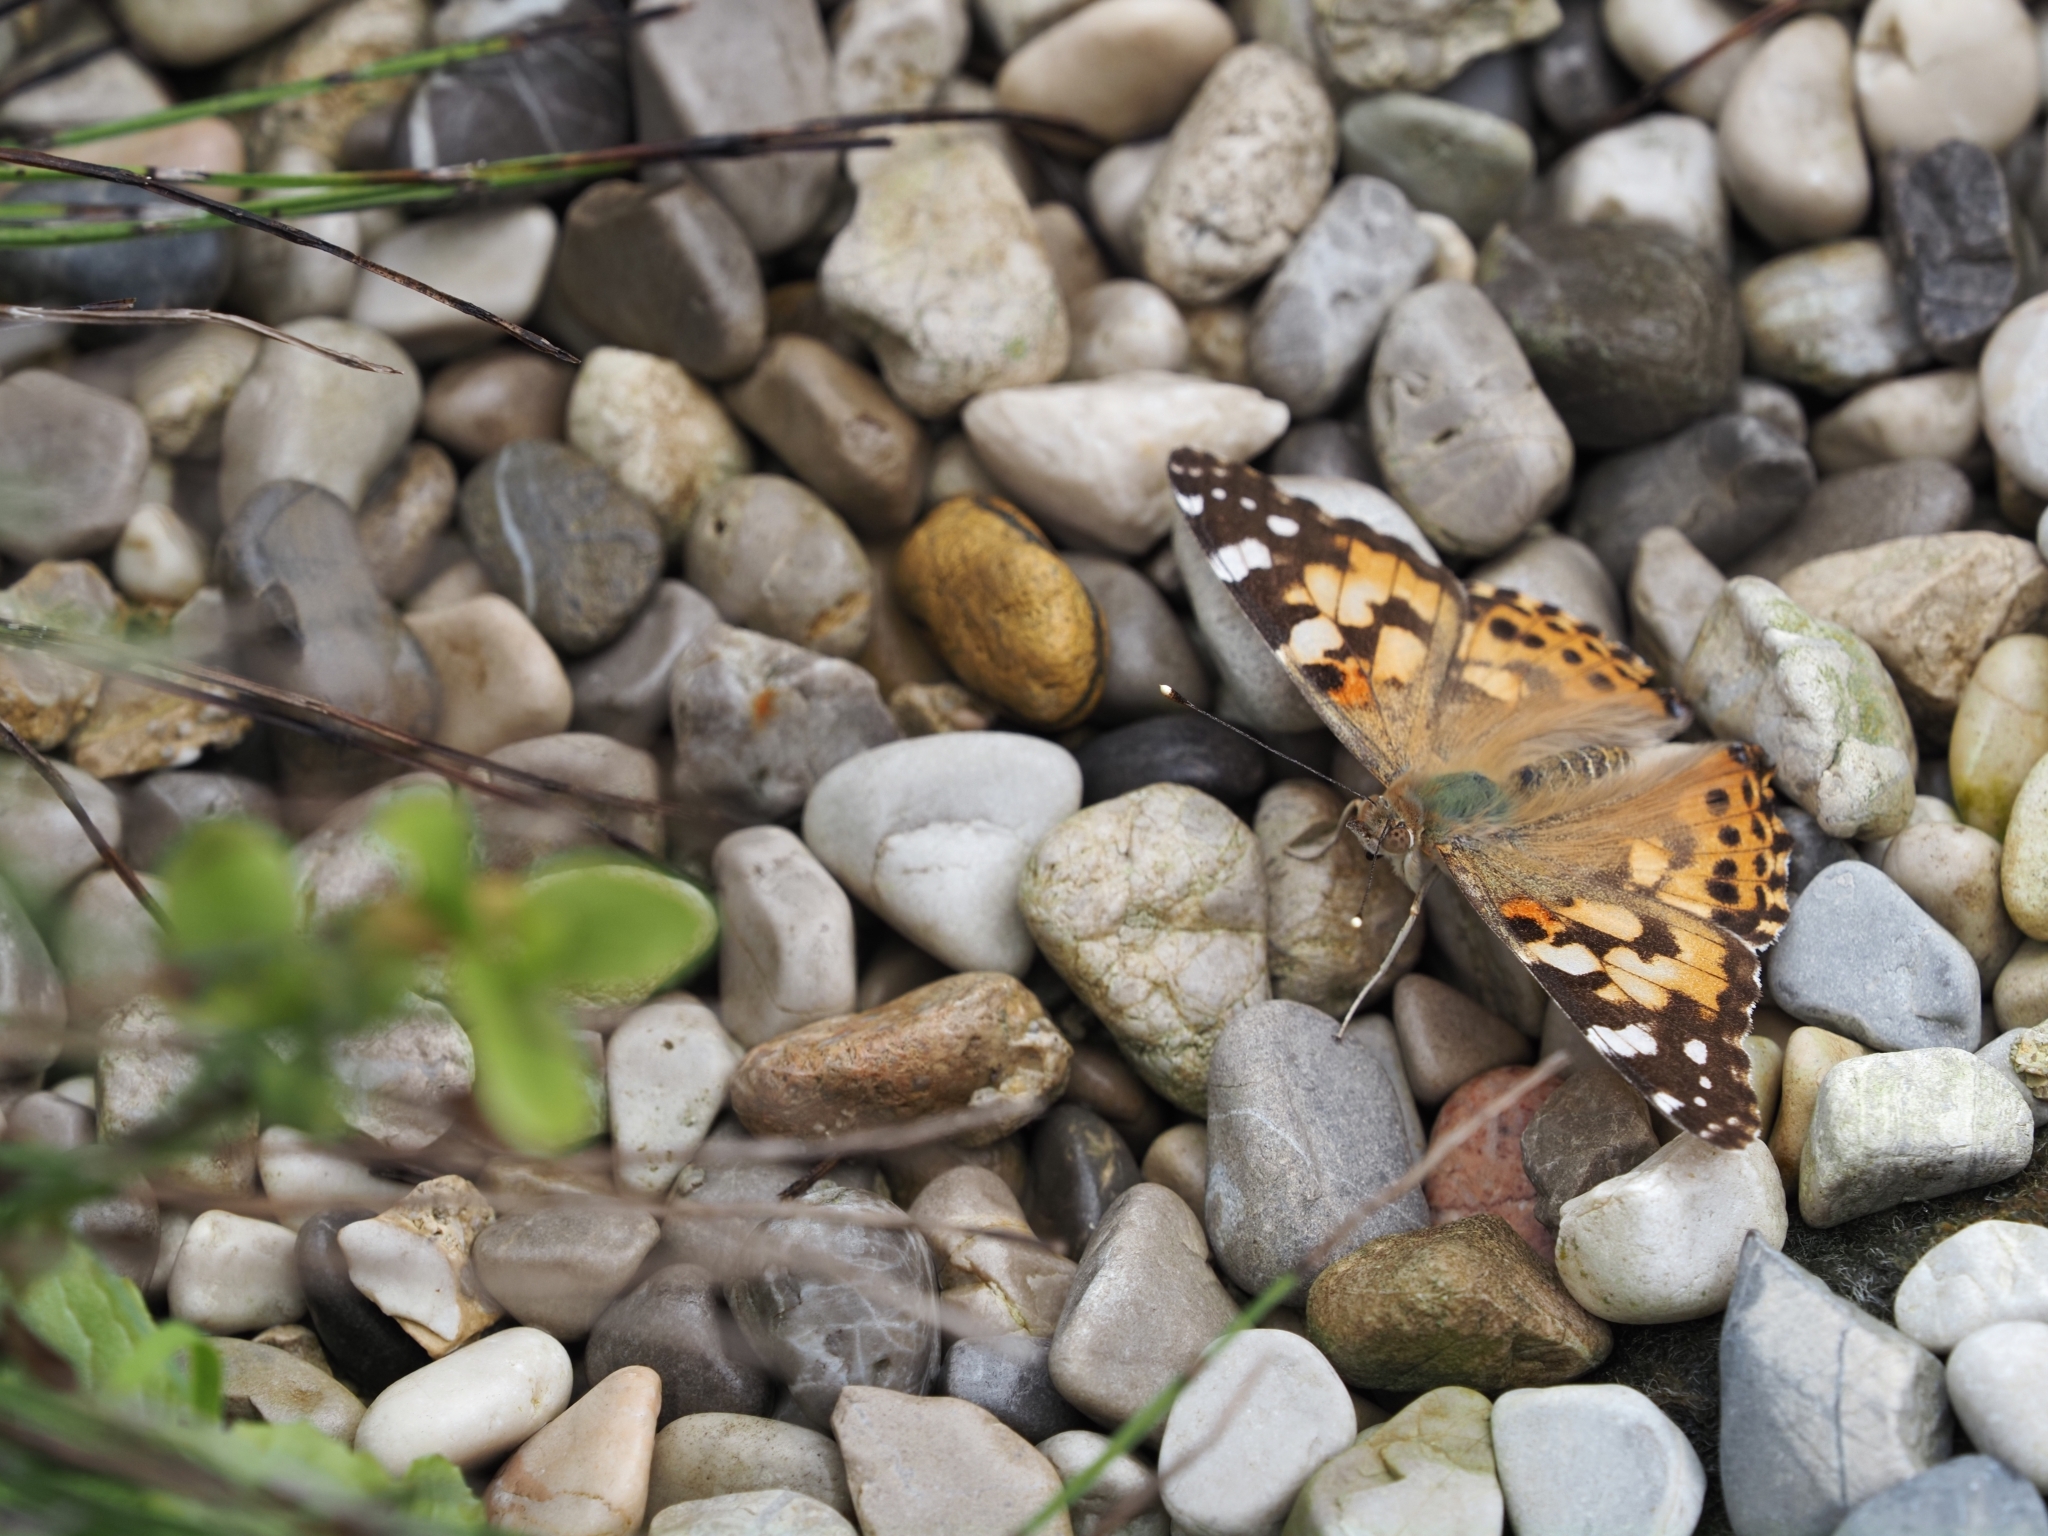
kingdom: Animalia
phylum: Arthropoda
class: Insecta
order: Lepidoptera
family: Nymphalidae
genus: Vanessa
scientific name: Vanessa cardui
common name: Painted lady
